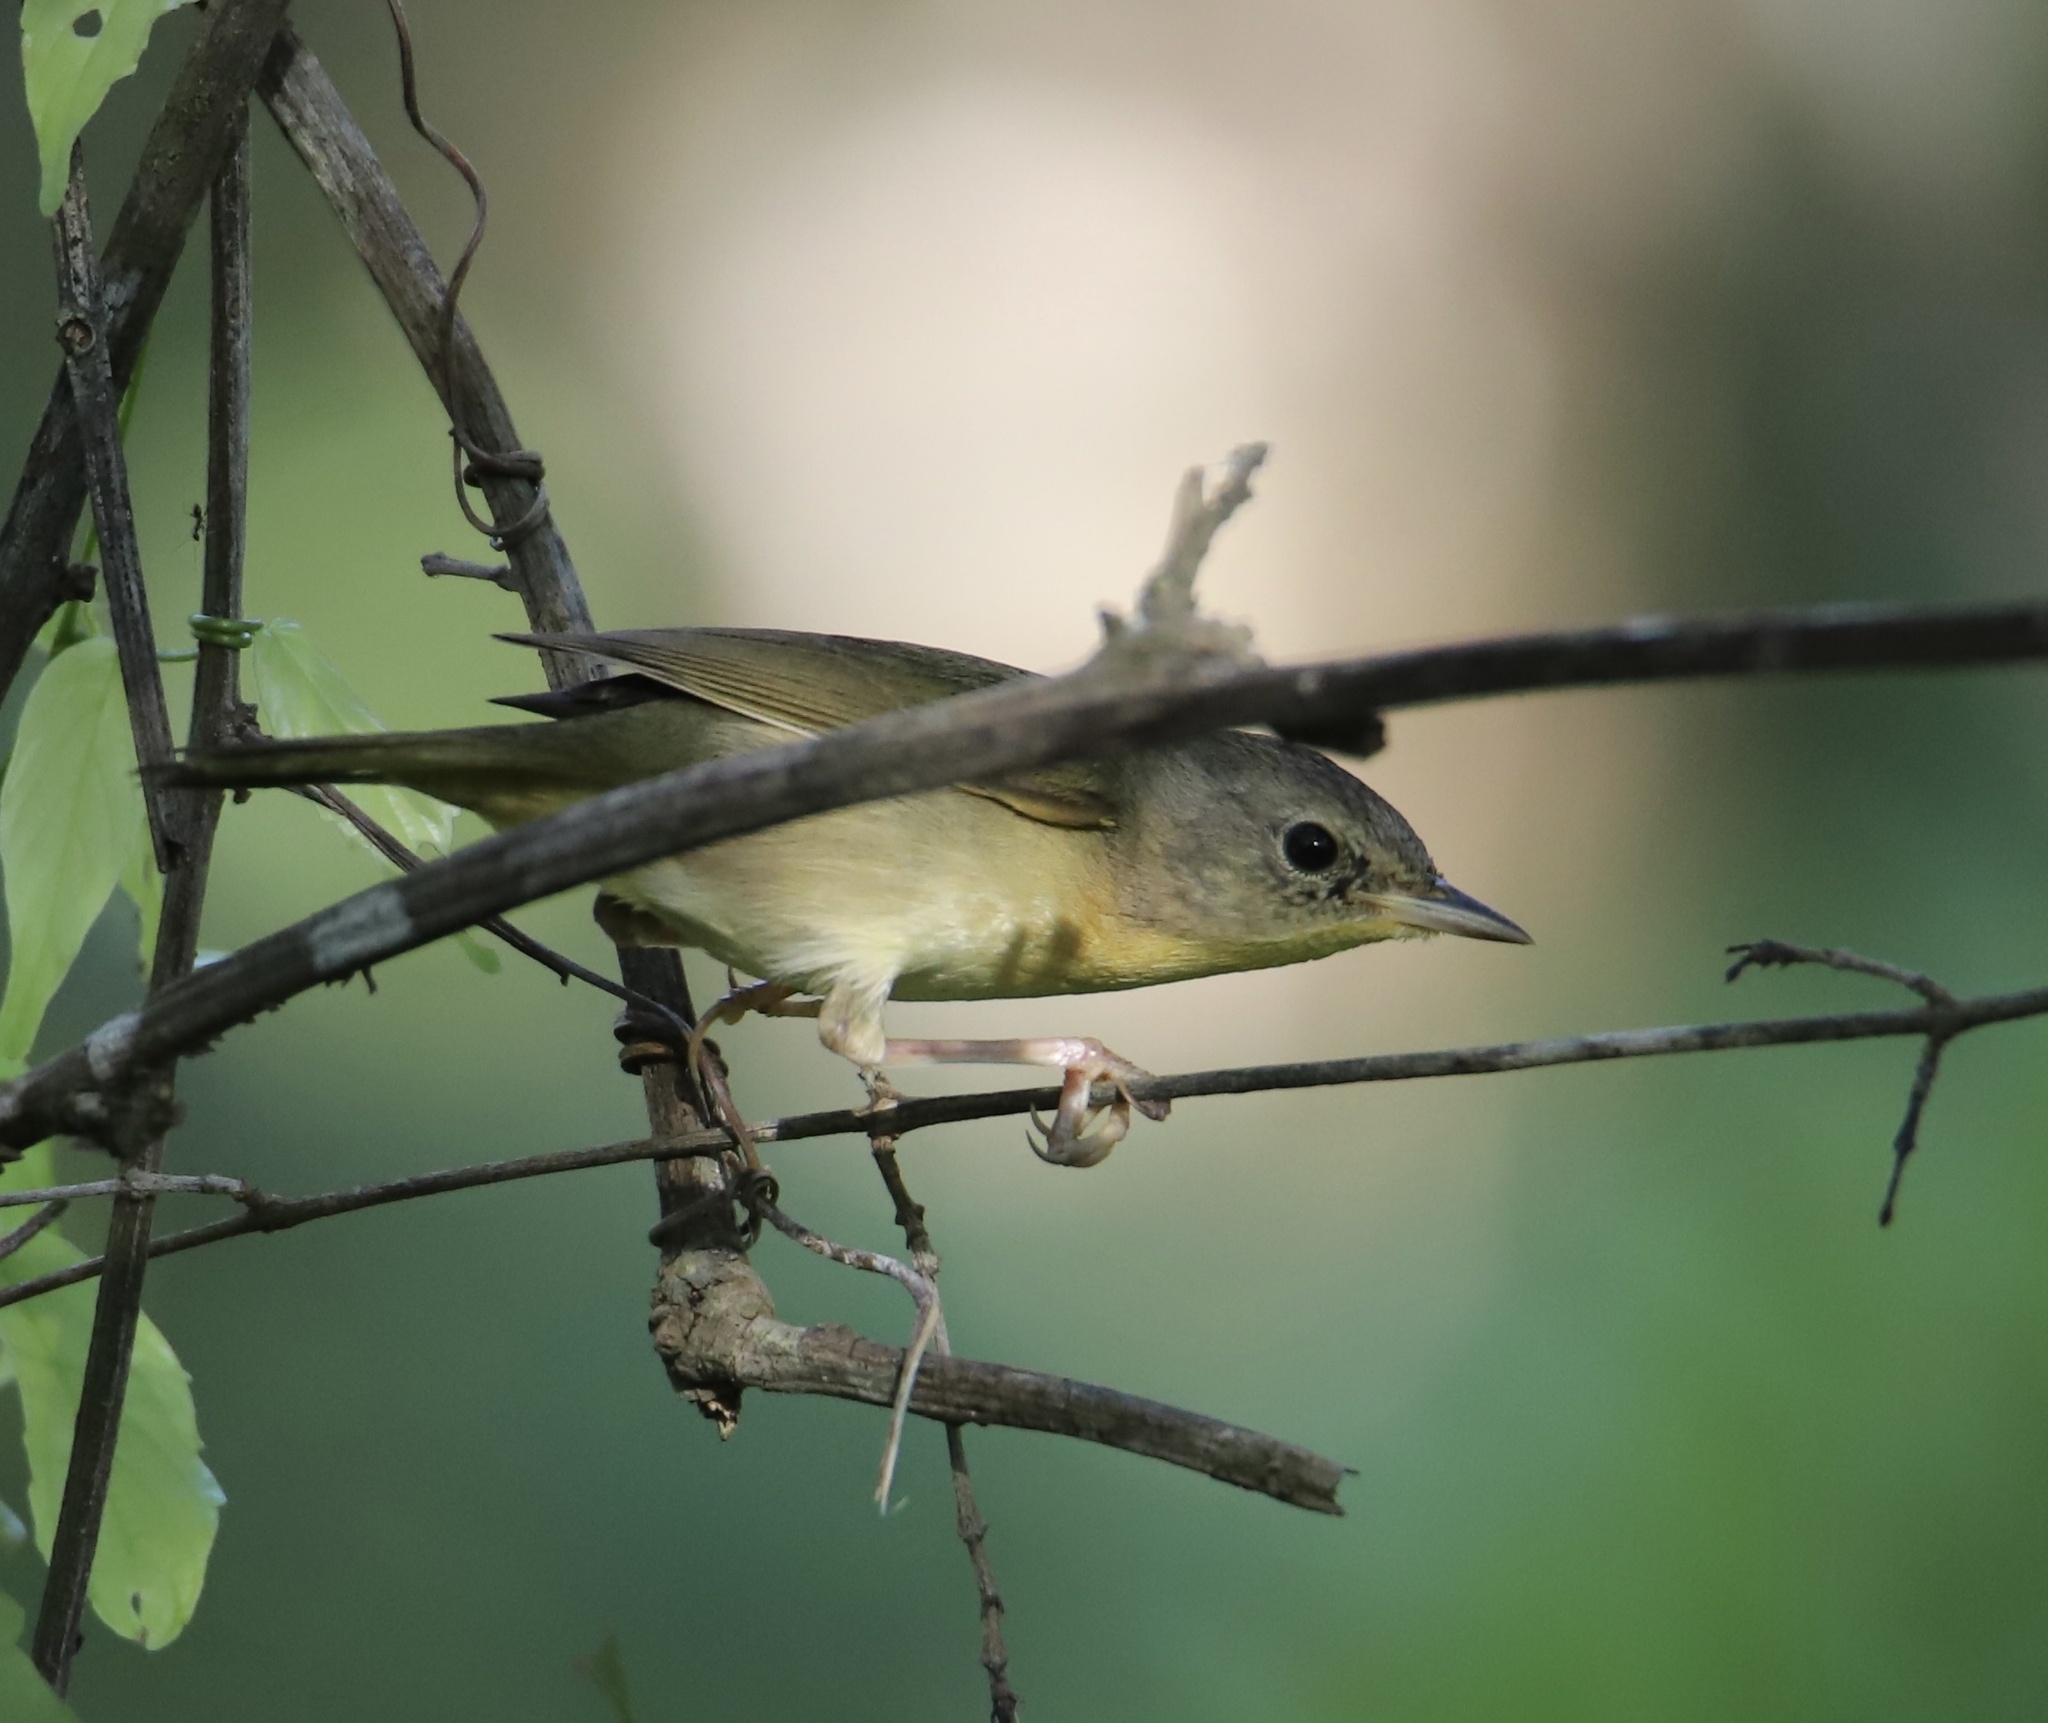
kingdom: Animalia
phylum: Chordata
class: Aves
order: Passeriformes
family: Parulidae
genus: Geothlypis
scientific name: Geothlypis trichas
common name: Common yellowthroat
